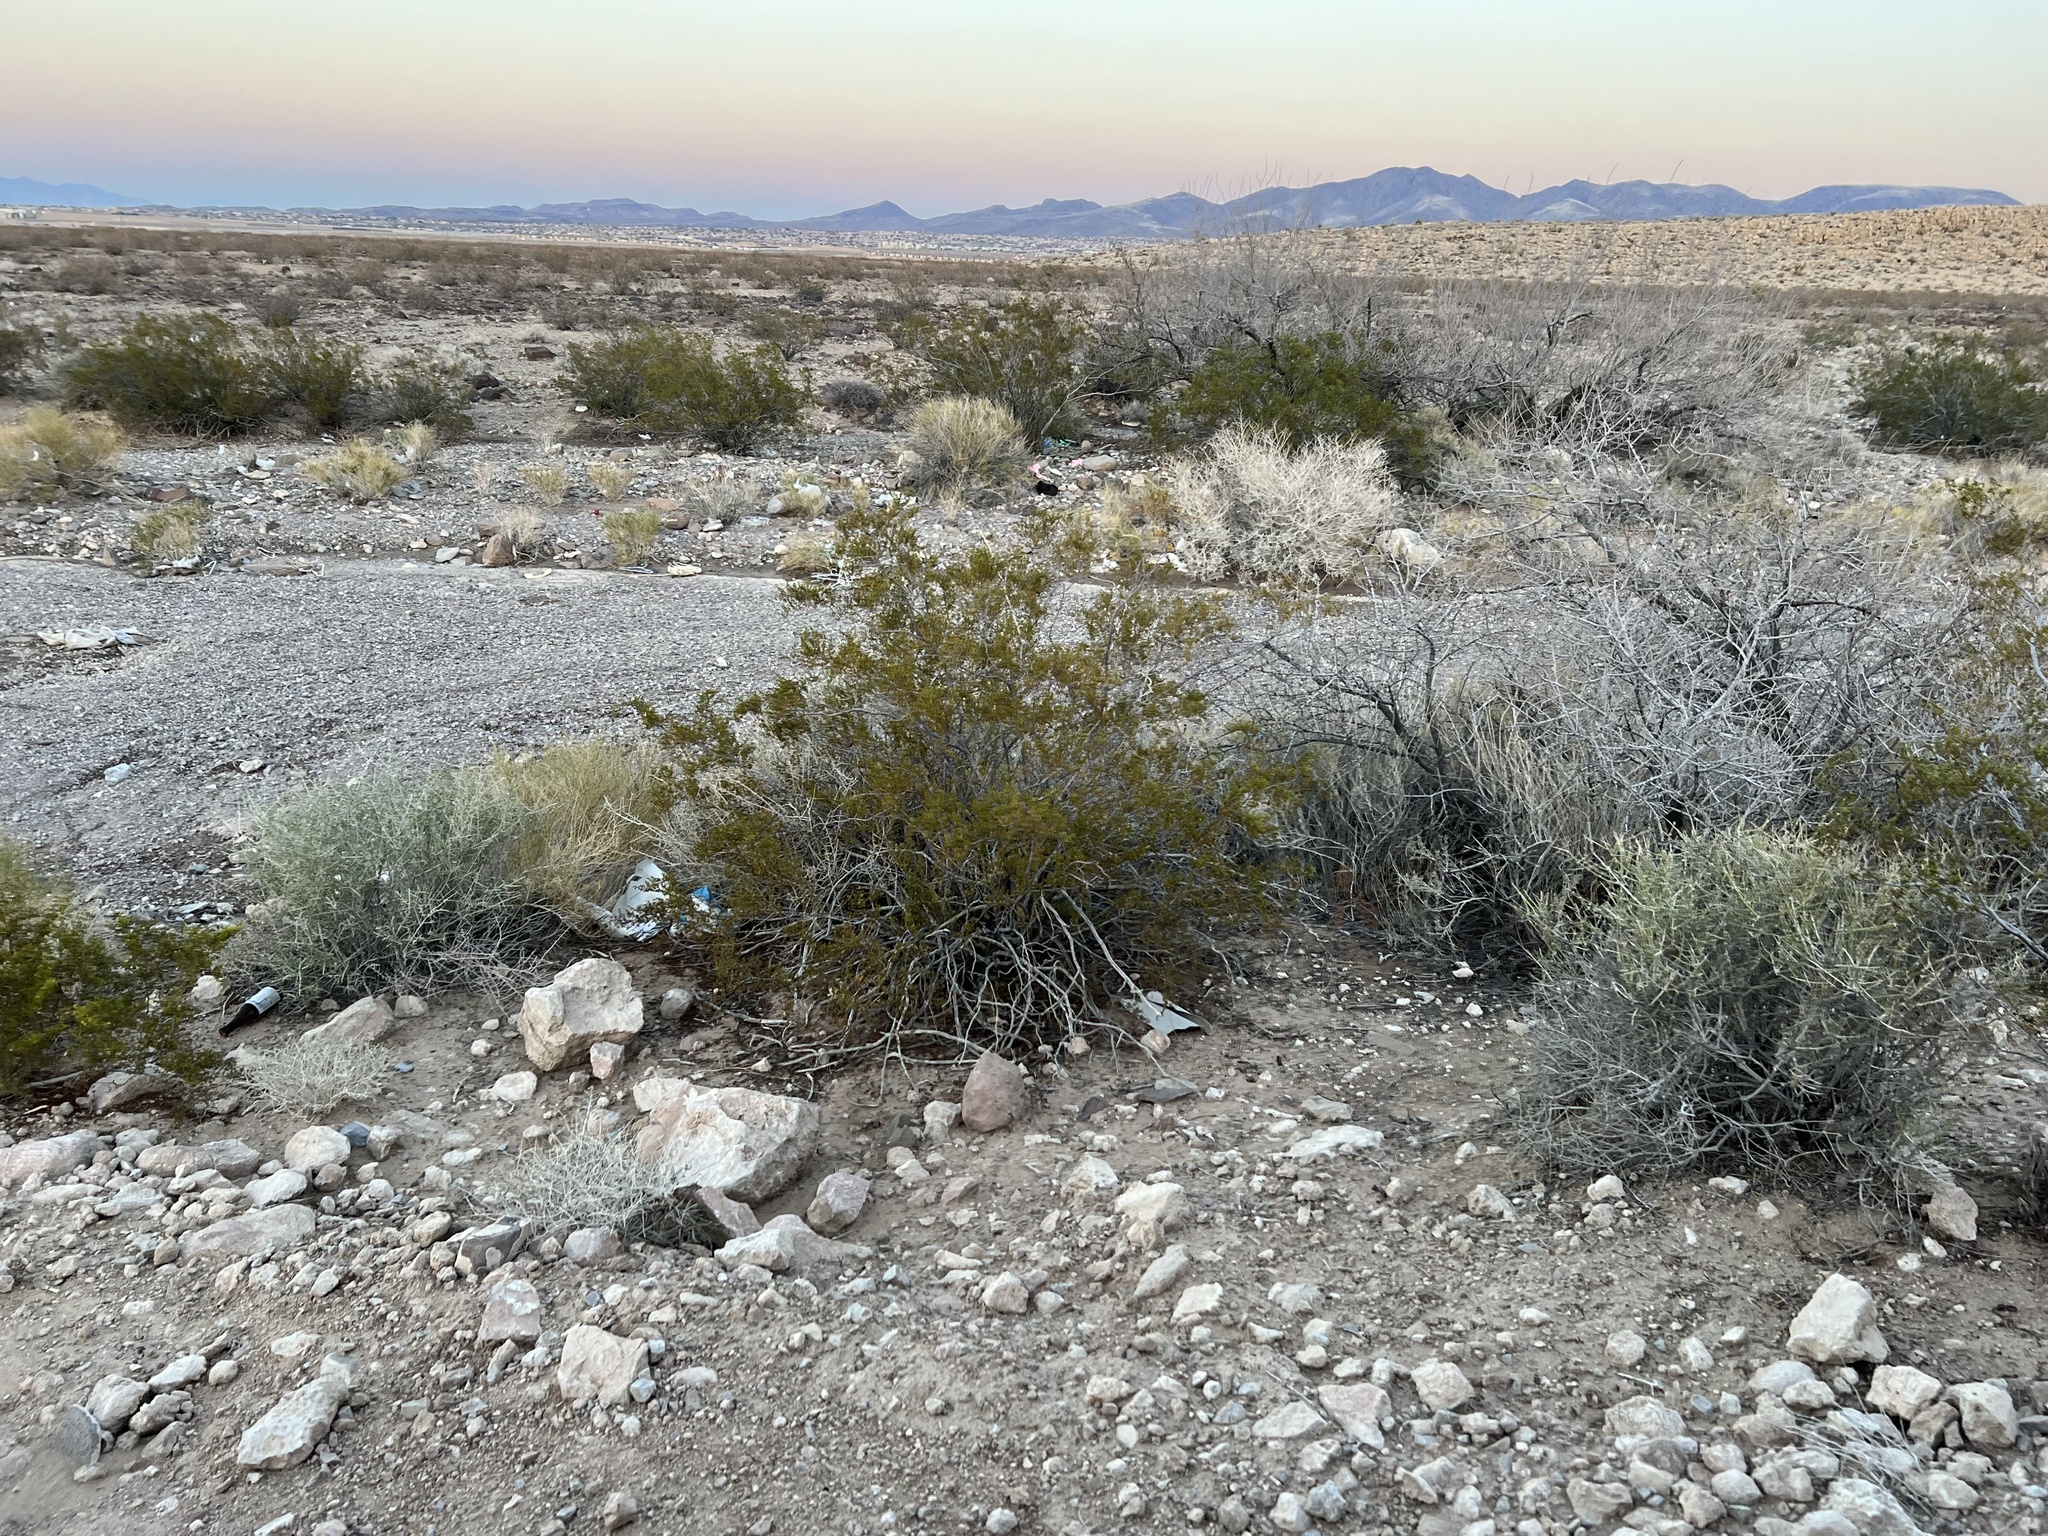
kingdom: Plantae
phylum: Tracheophyta
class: Magnoliopsida
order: Zygophyllales
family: Zygophyllaceae
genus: Larrea
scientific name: Larrea tridentata
